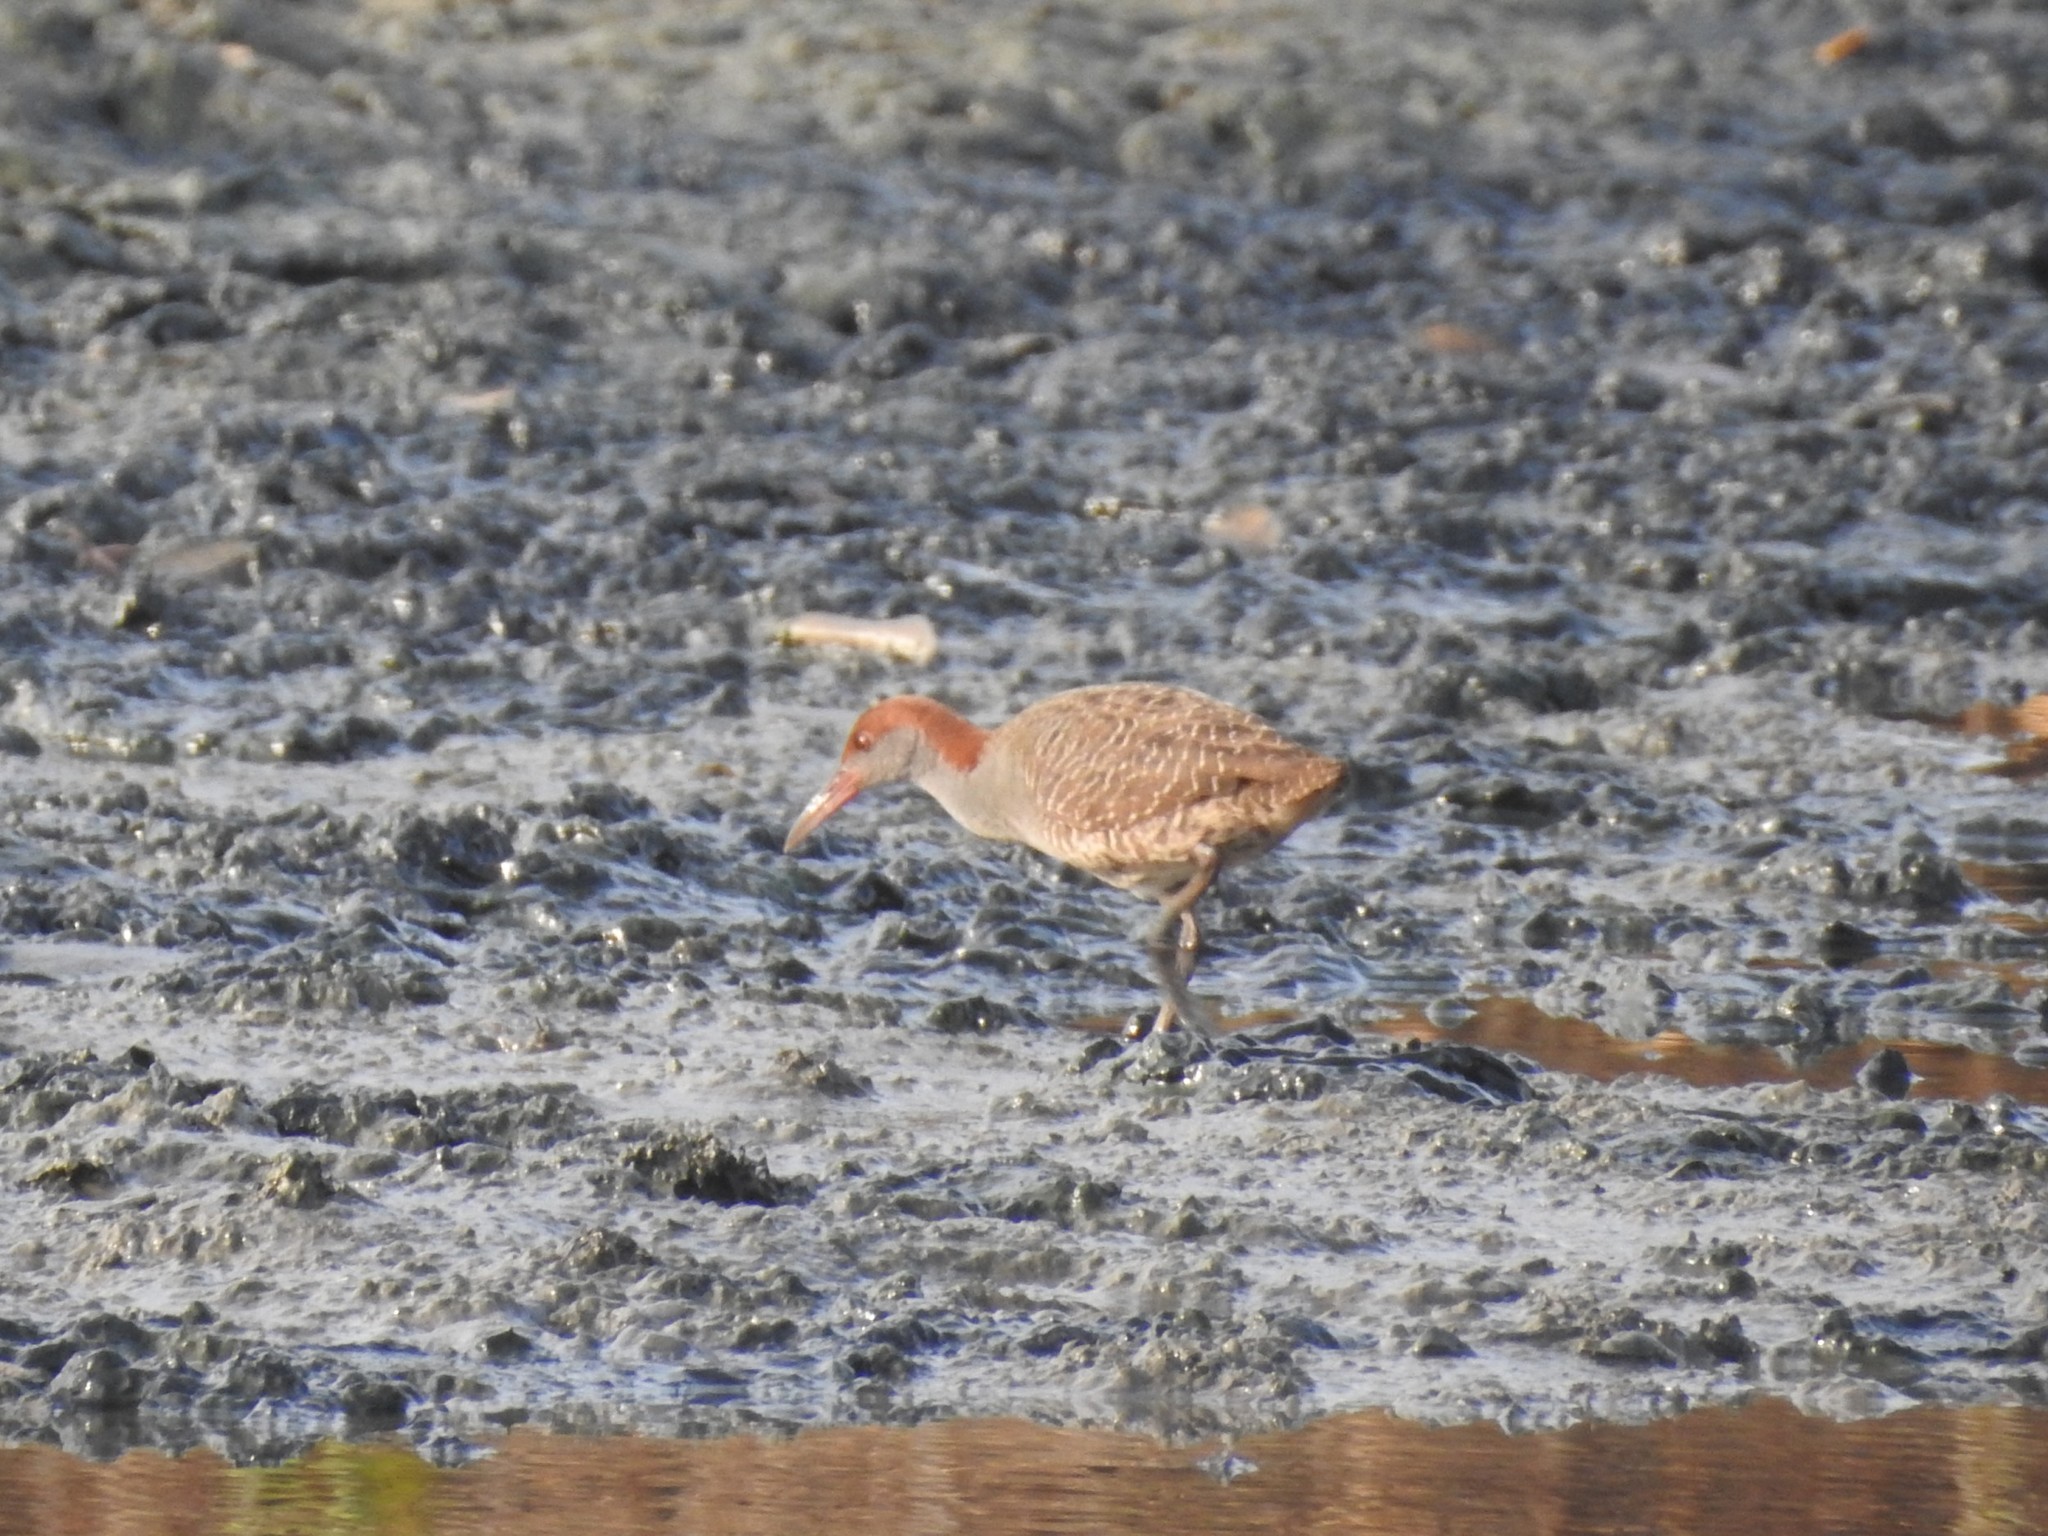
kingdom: Animalia
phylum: Chordata
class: Aves
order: Gruiformes
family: Rallidae
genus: Gallirallus
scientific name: Gallirallus striatus
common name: Slaty-breasted rail
